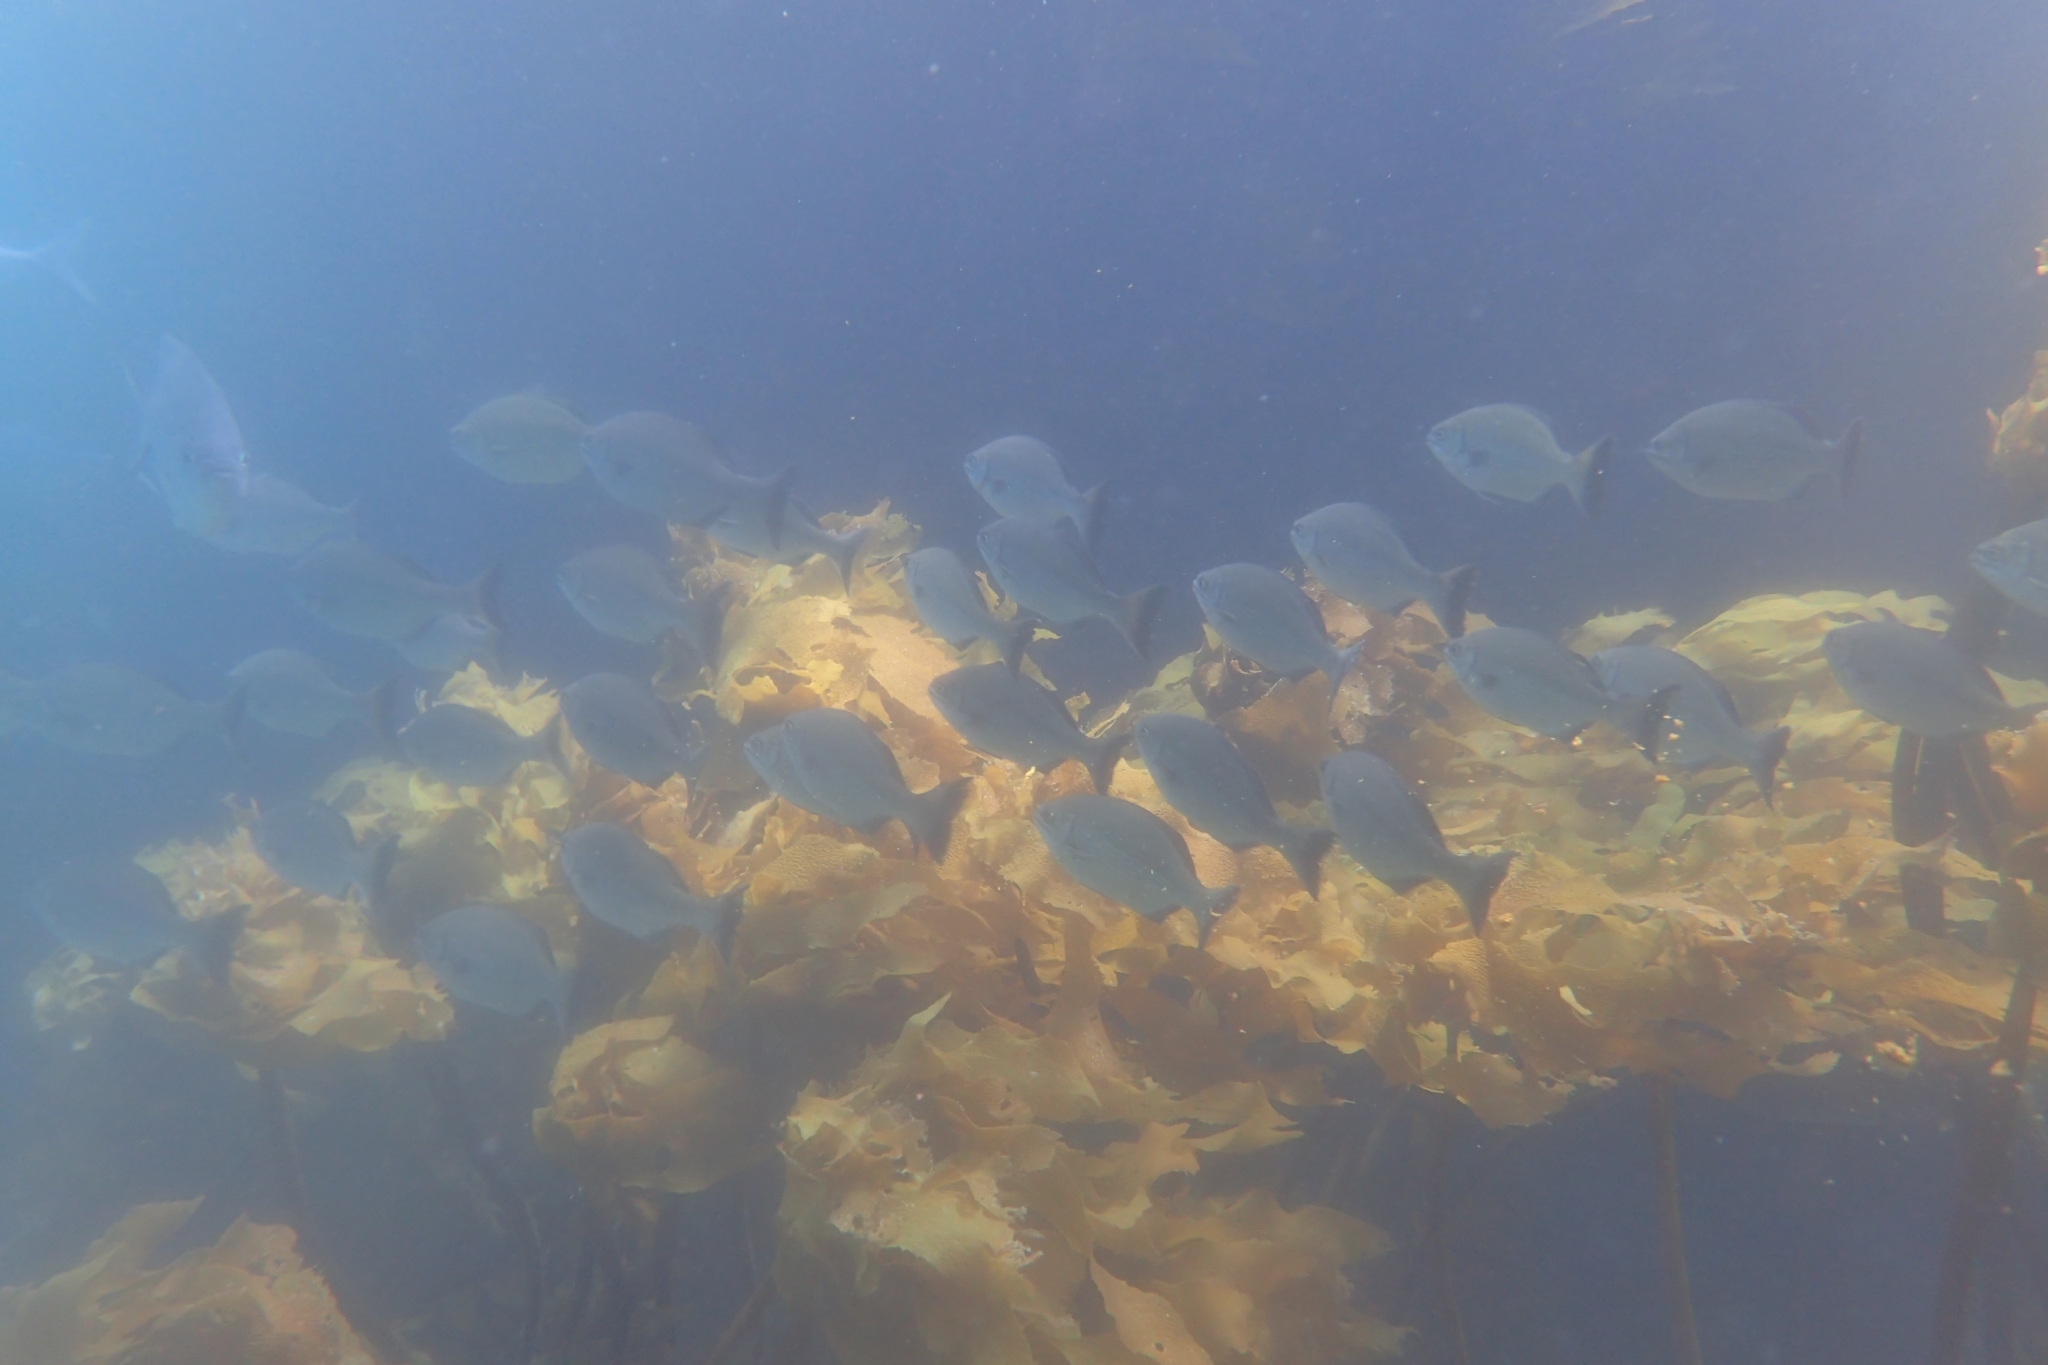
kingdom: Animalia
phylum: Chordata
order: Perciformes
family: Kyphosidae
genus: Kyphosus
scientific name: Kyphosus sydneyanus
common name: Silver drummer
